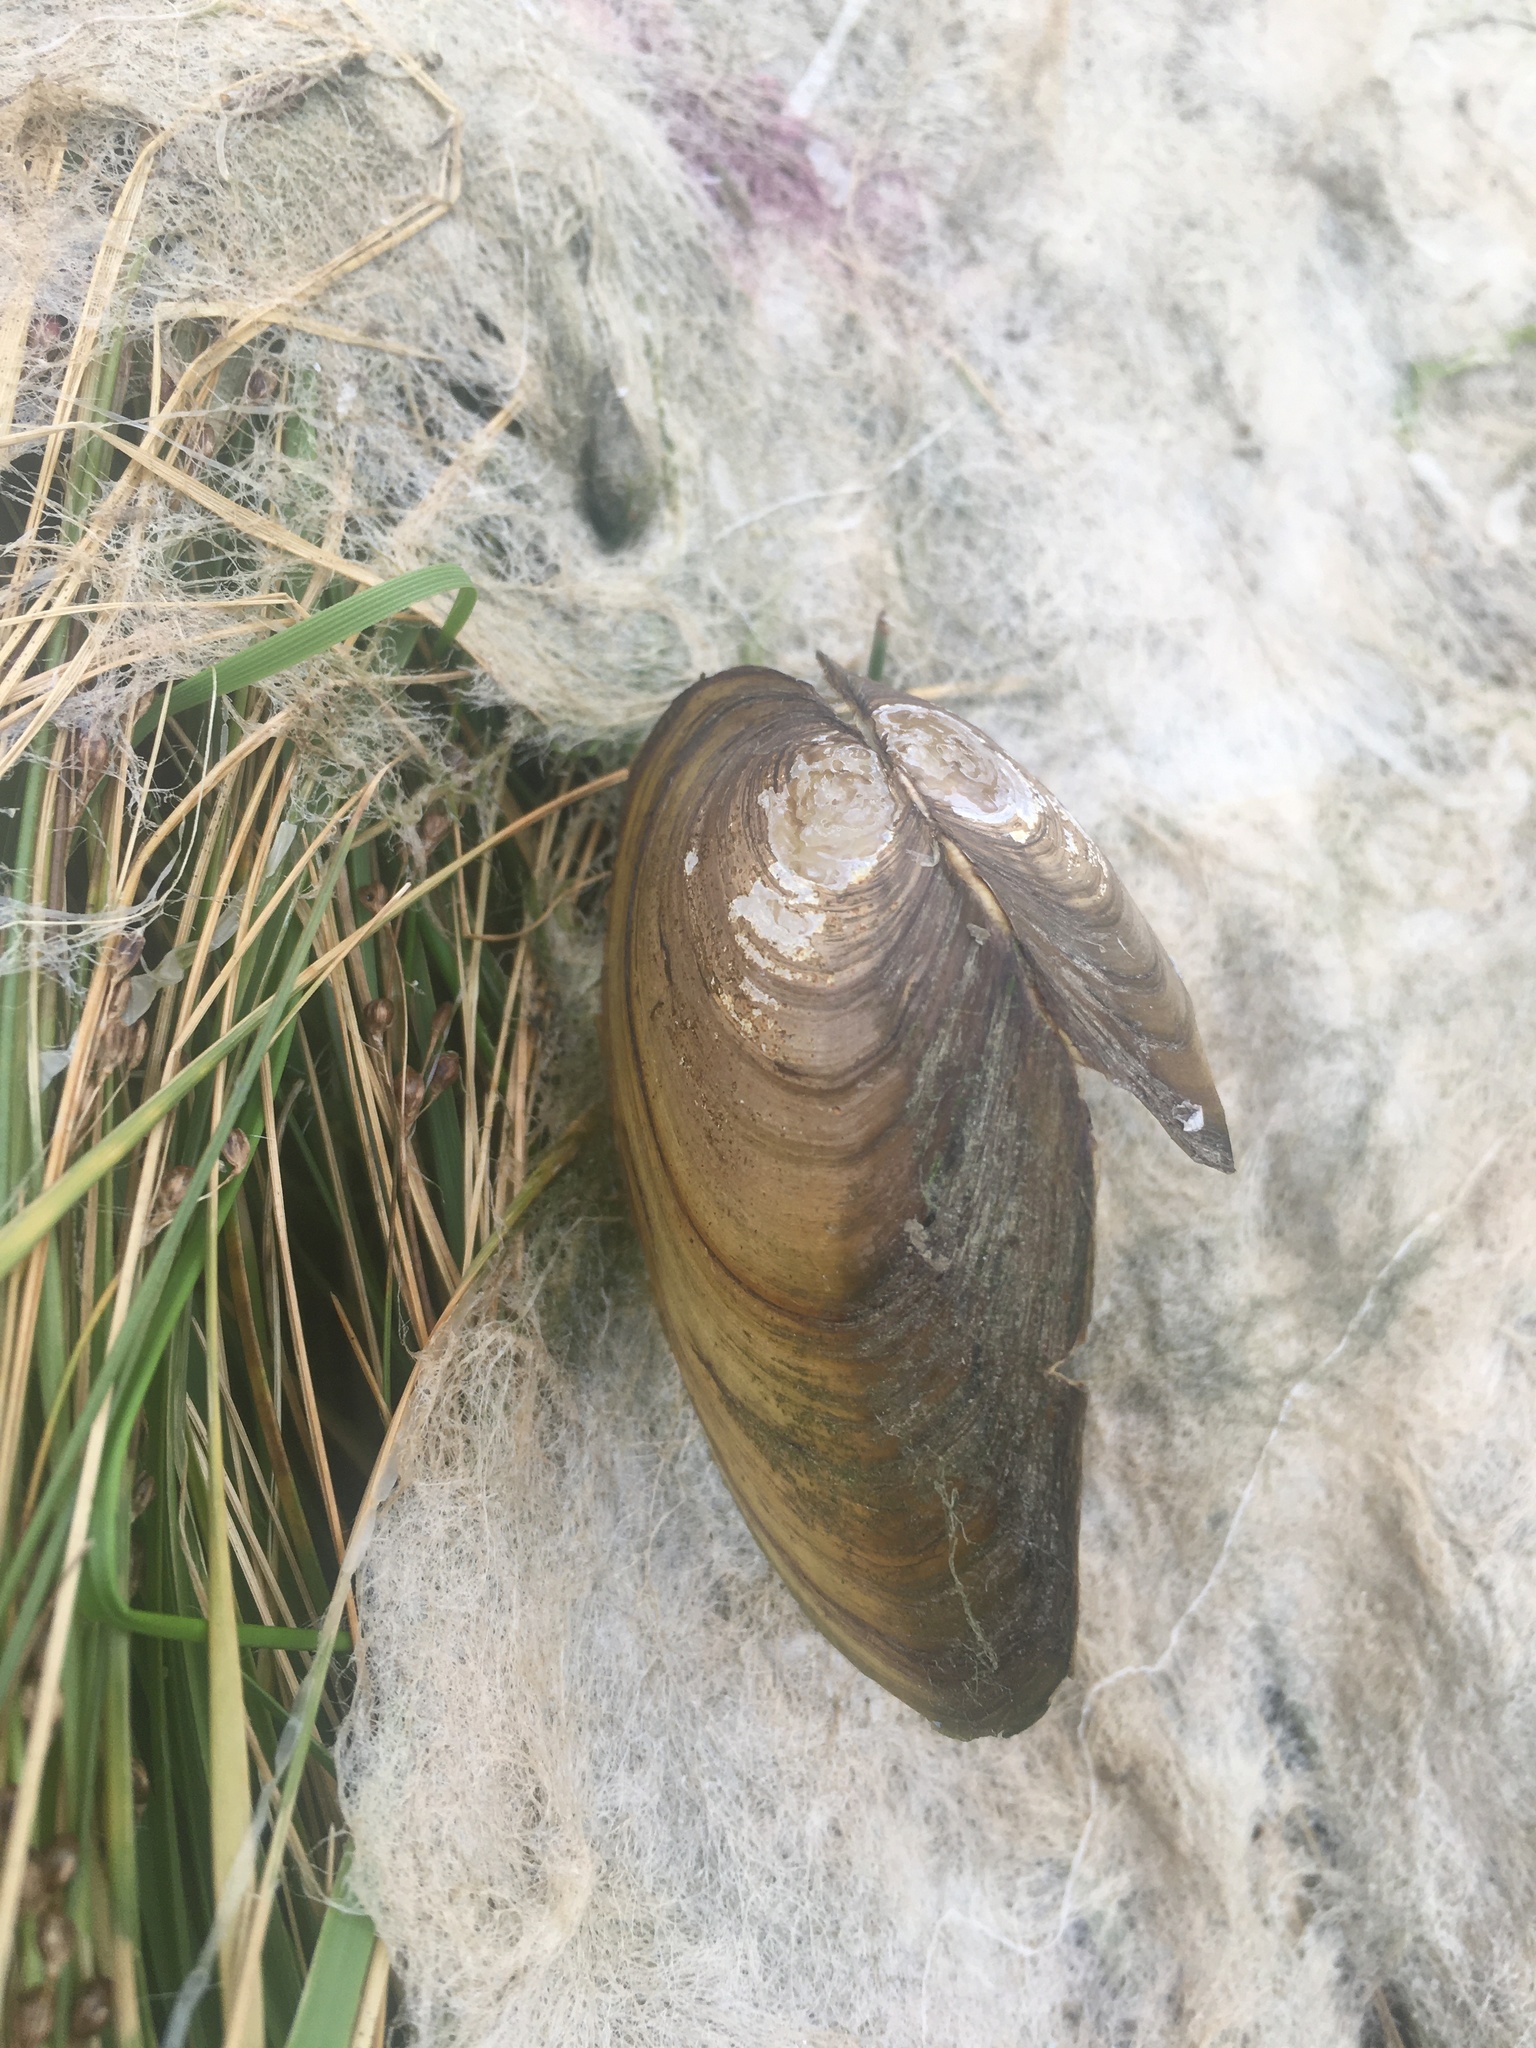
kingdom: Animalia
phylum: Mollusca
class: Bivalvia
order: Unionida
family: Unionidae
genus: Anodonta
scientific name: Anodonta anatina
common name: Duck mussel
